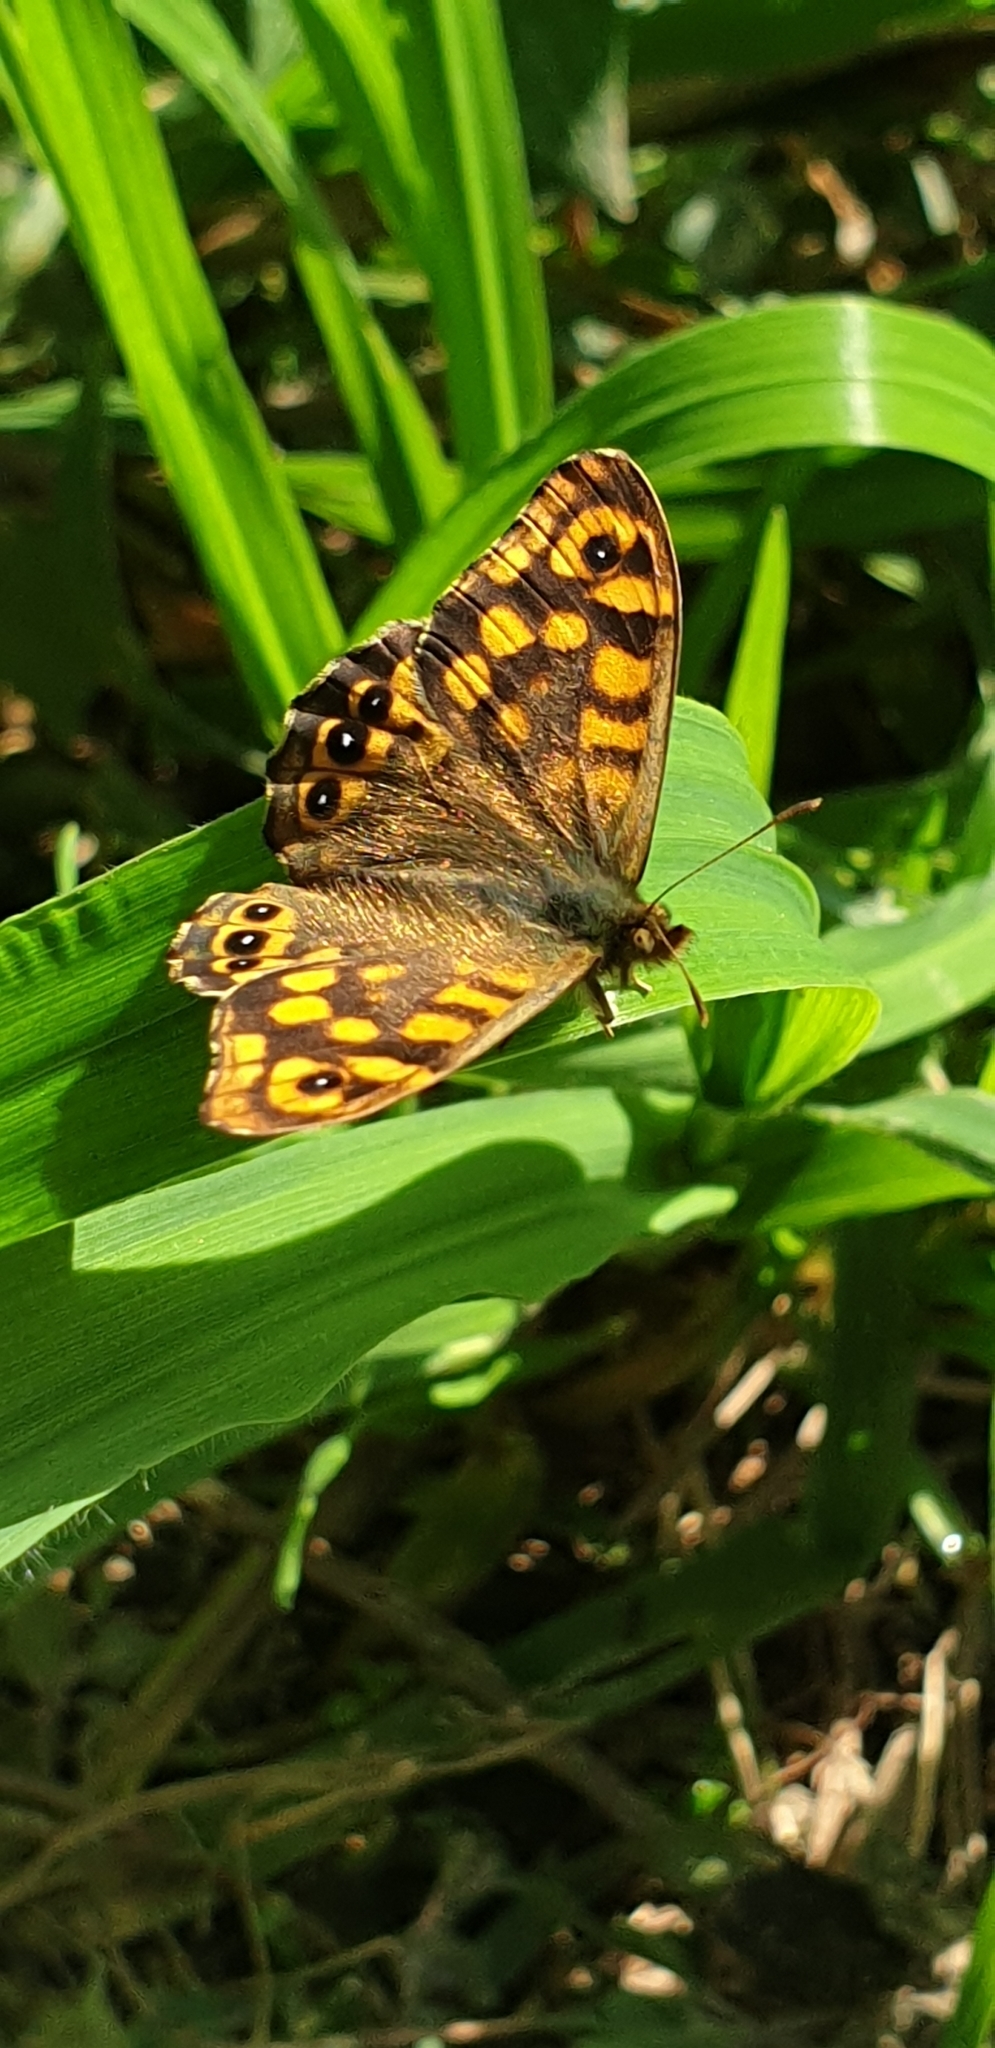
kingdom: Animalia
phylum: Arthropoda
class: Insecta
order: Lepidoptera
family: Nymphalidae
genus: Pararge
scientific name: Pararge aegeria
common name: Speckled wood
